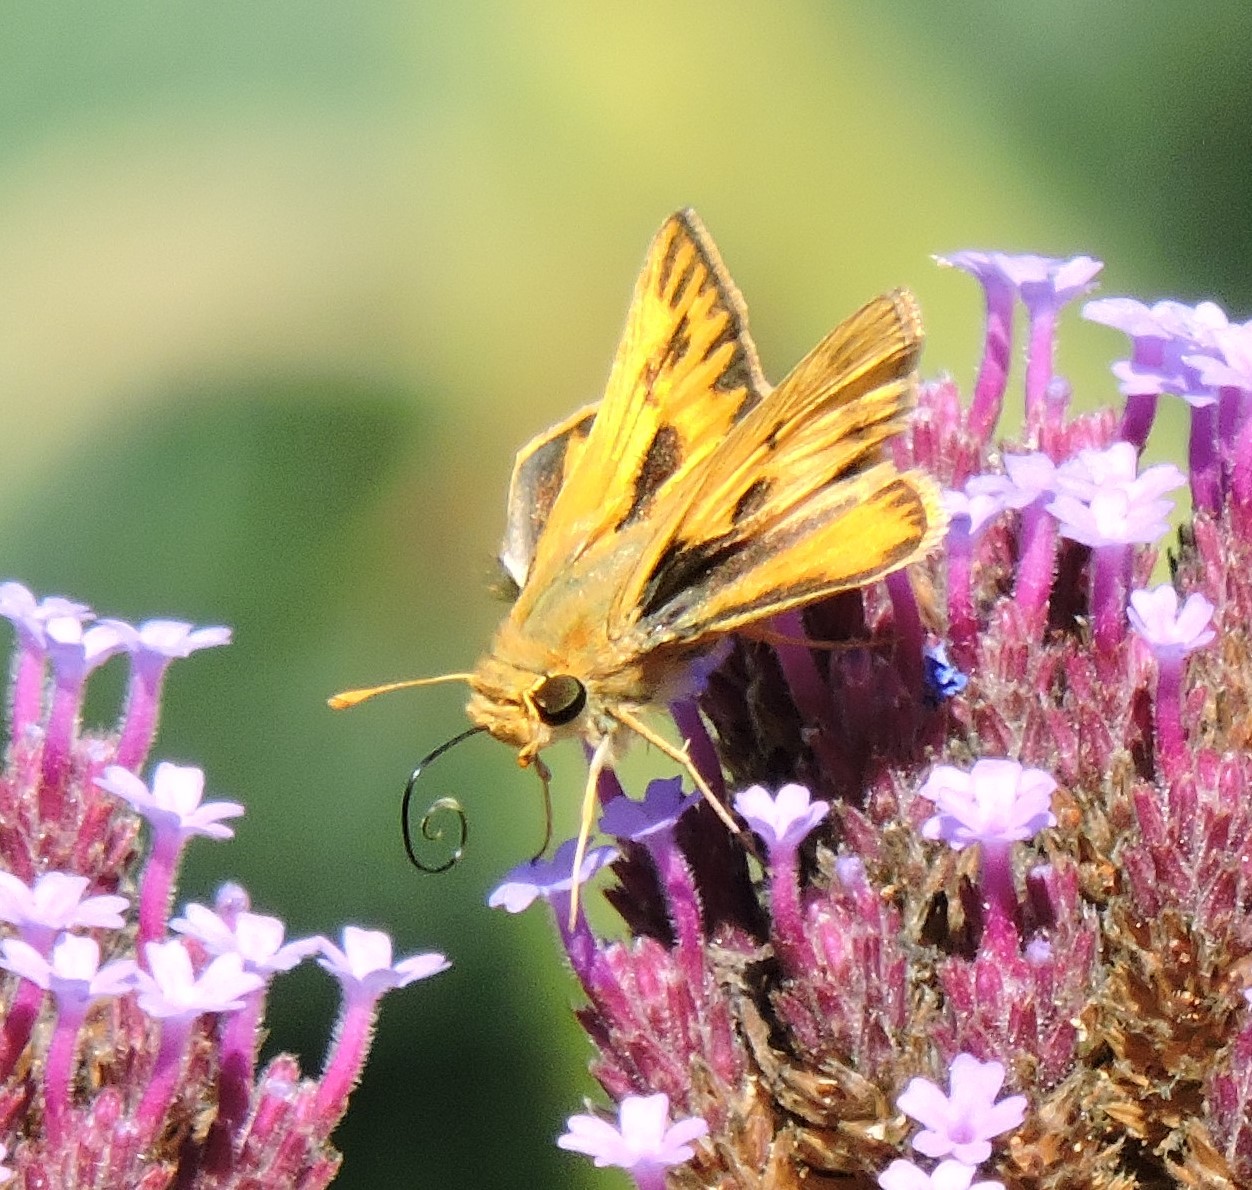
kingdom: Animalia
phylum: Arthropoda
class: Insecta
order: Lepidoptera
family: Hesperiidae
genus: Hylephila
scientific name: Hylephila phyleus
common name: Fiery skipper
